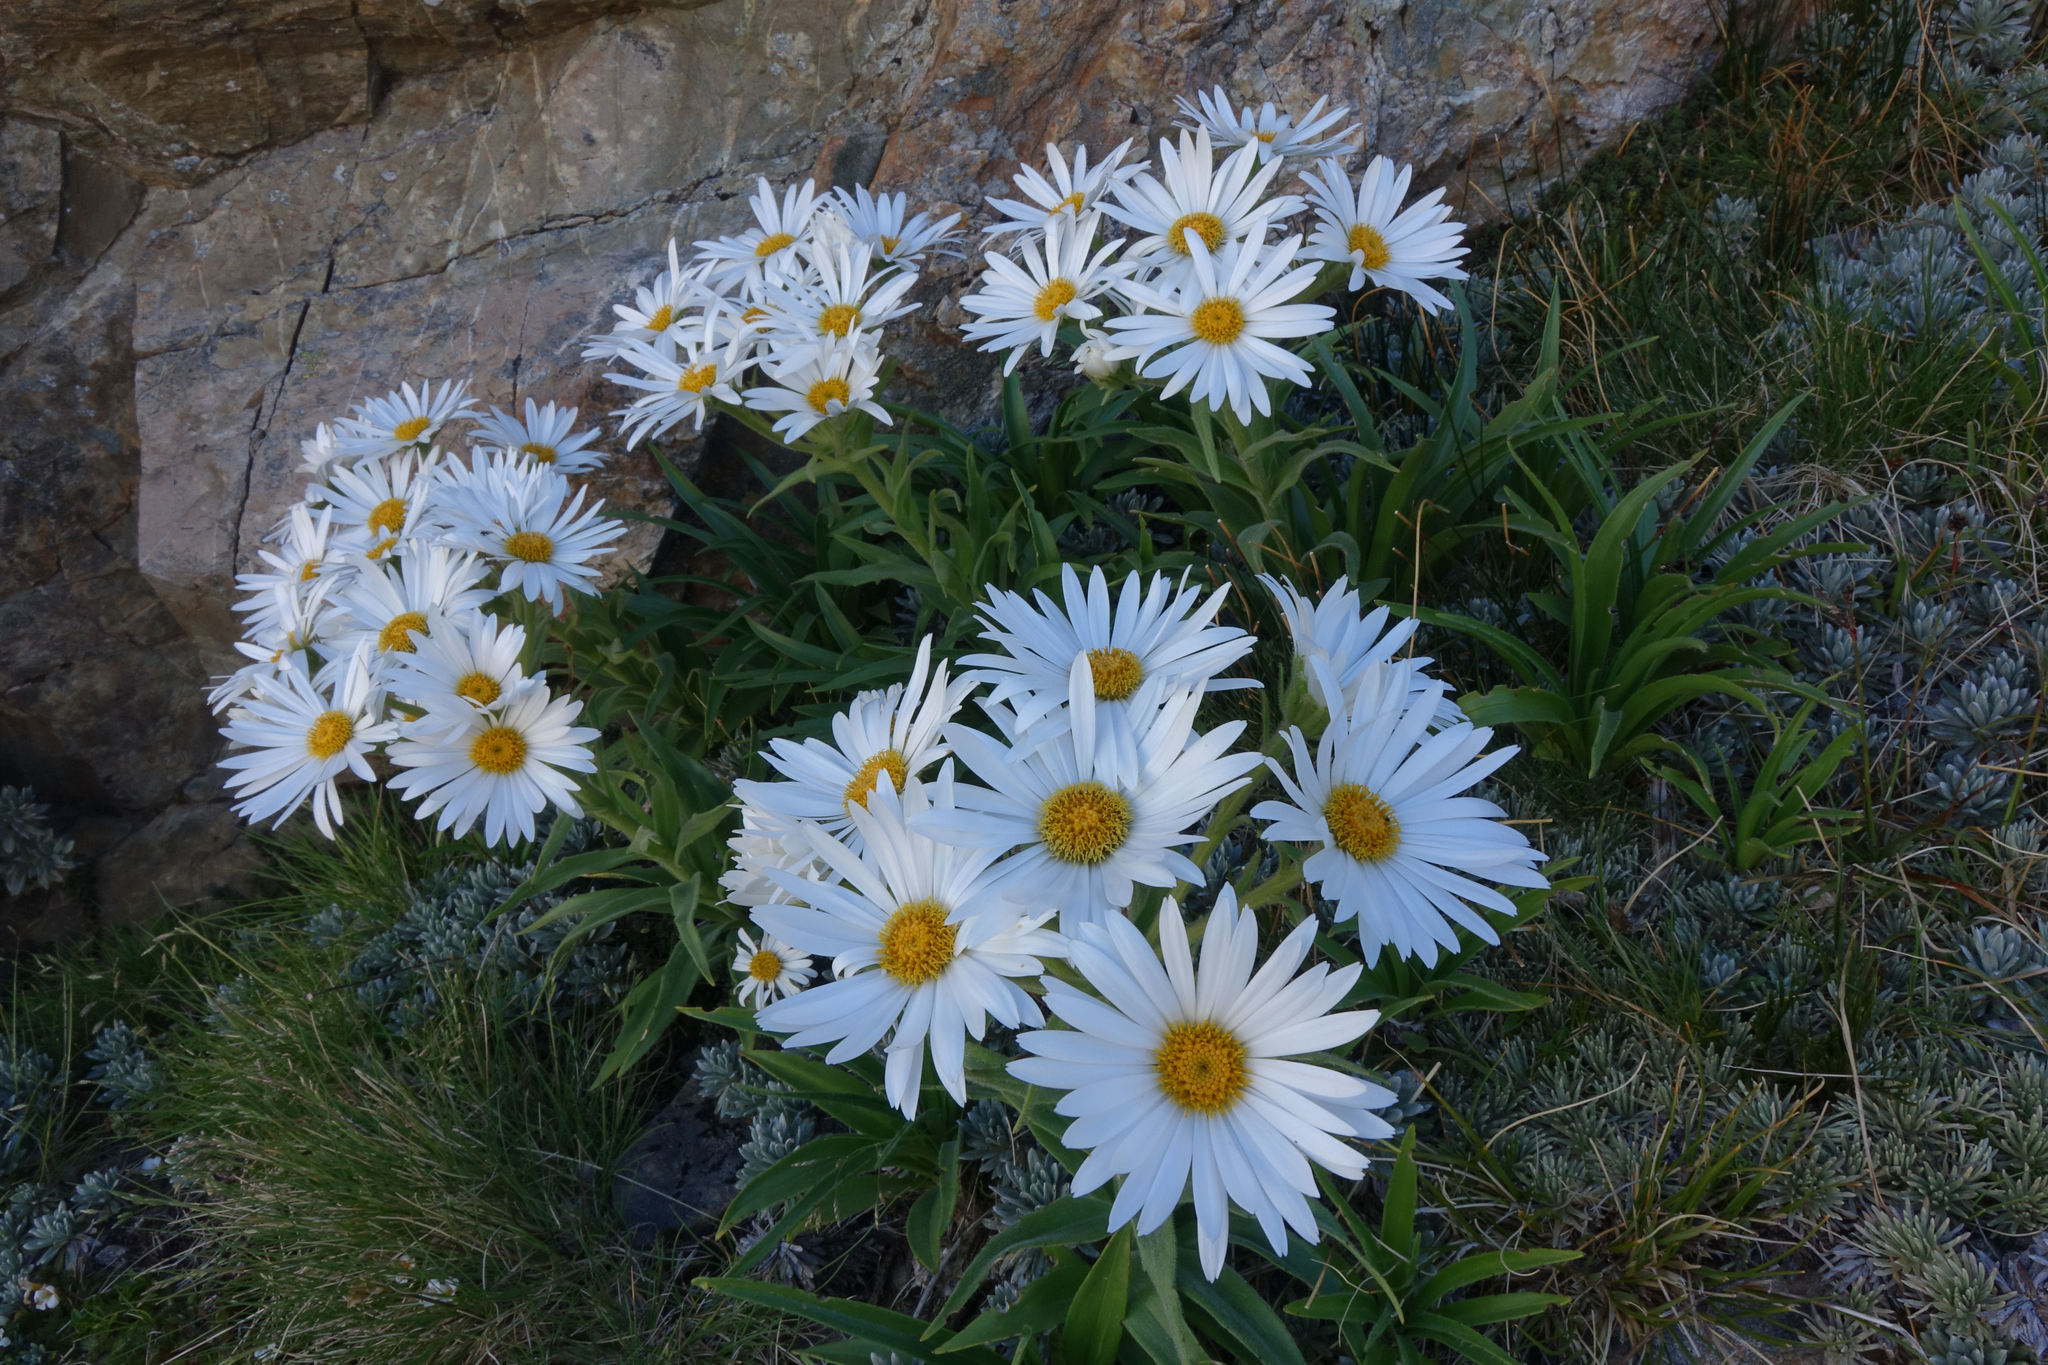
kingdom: Plantae
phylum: Tracheophyta
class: Magnoliopsida
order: Asterales
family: Asteraceae
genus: Dolichoglottis
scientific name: Dolichoglottis scorzoneroides
